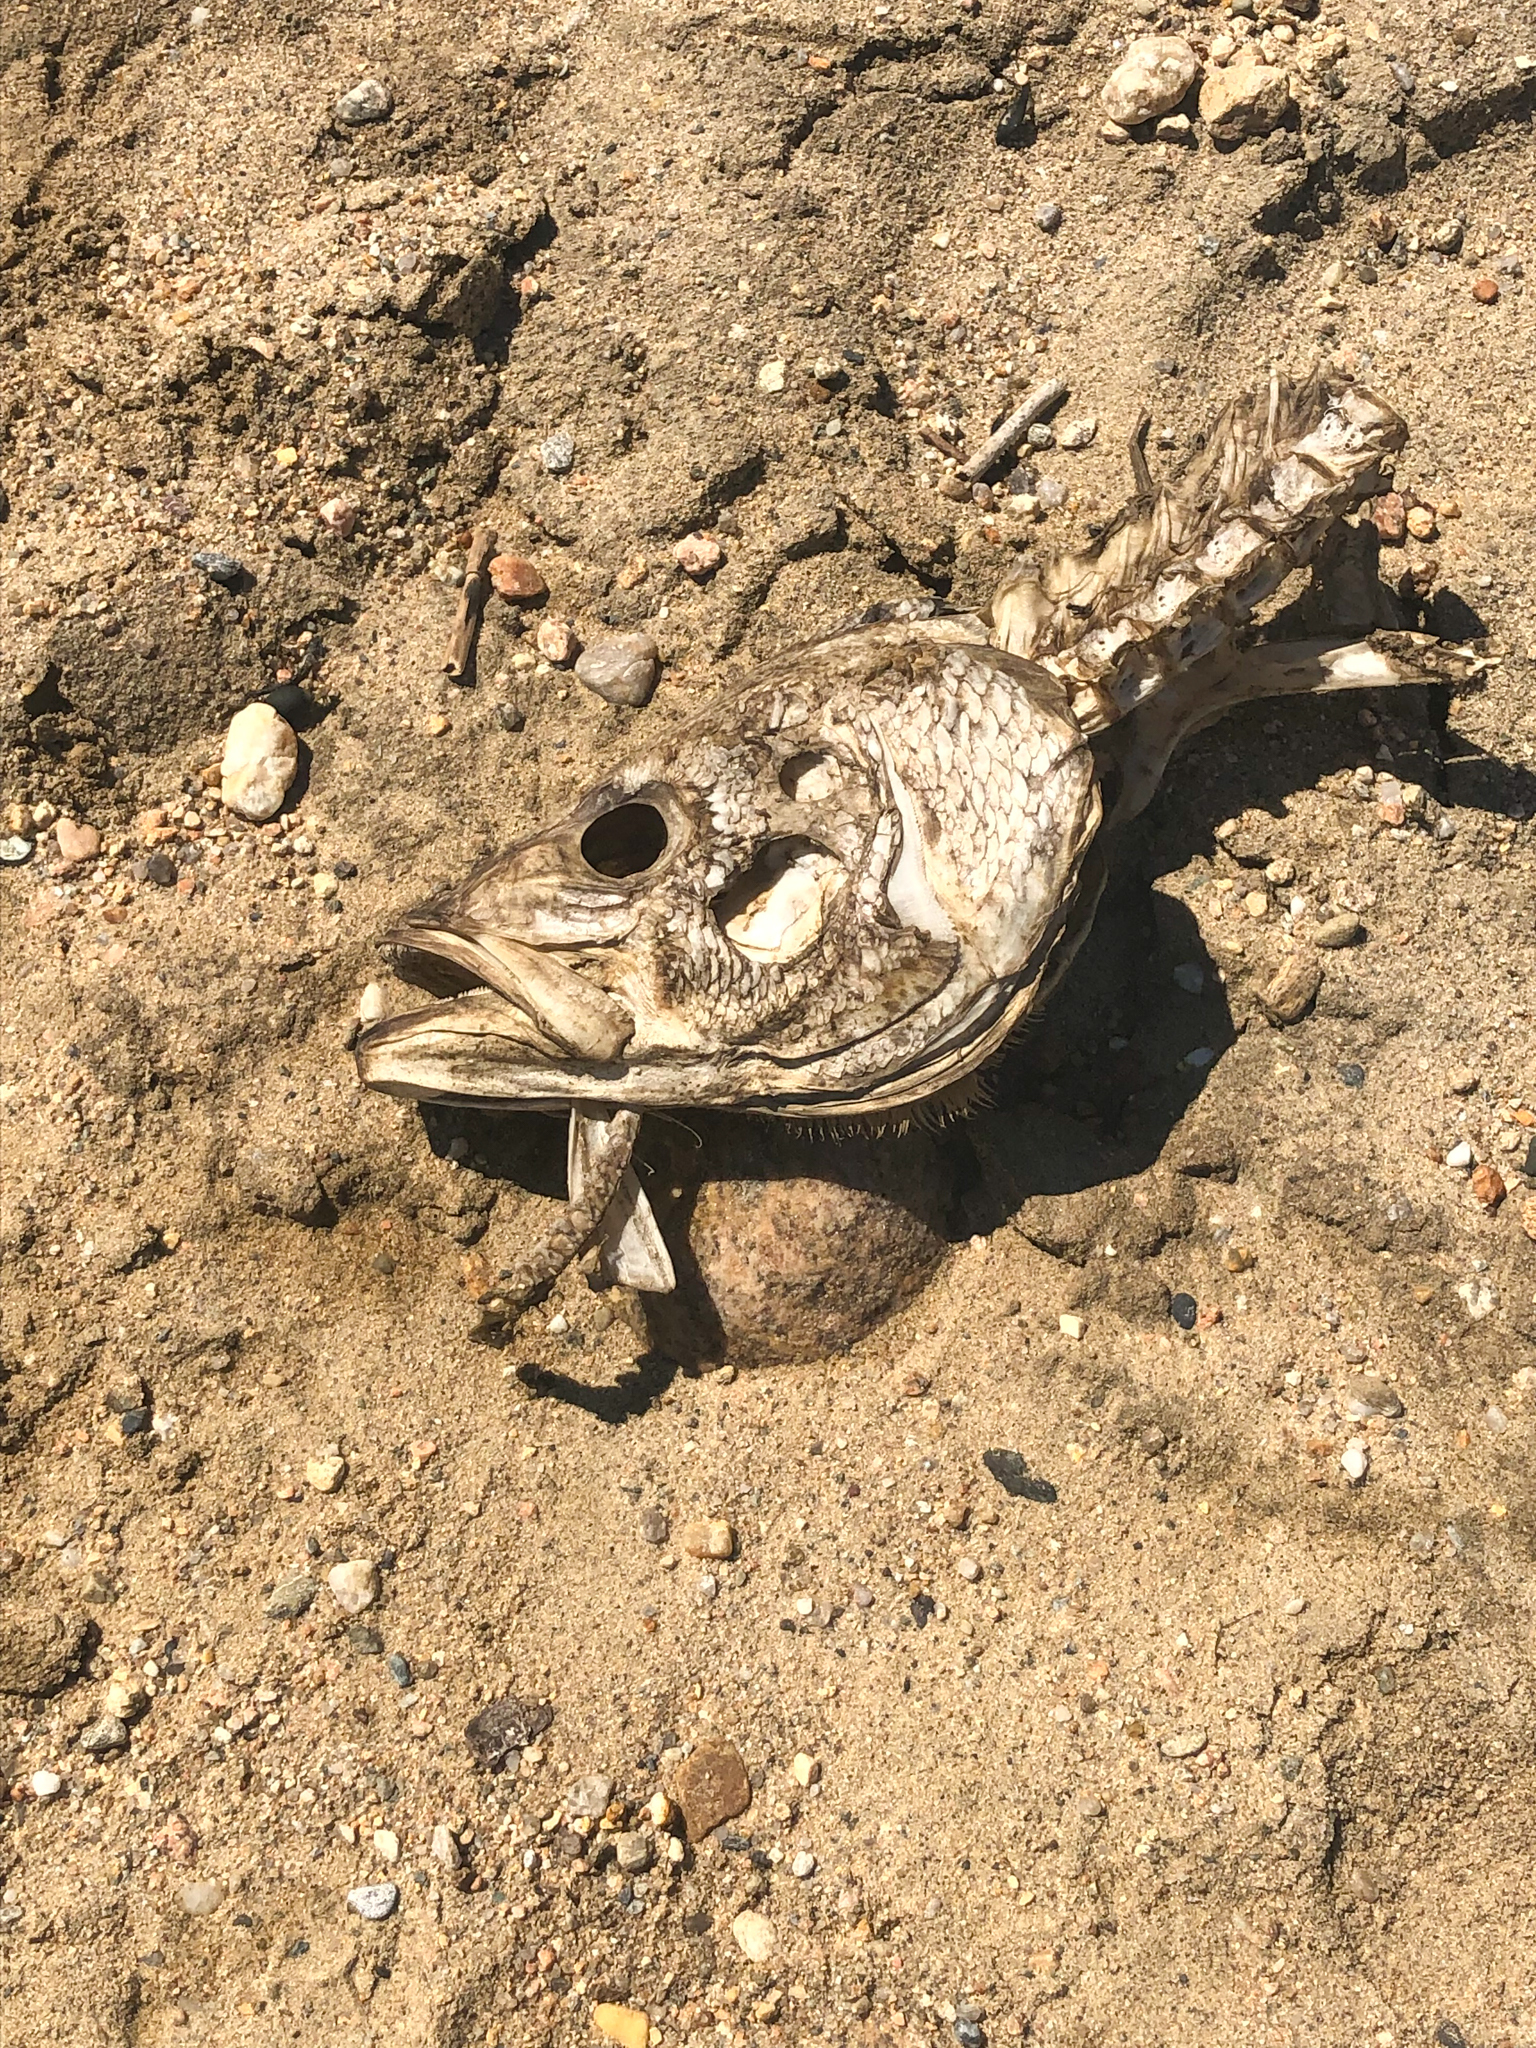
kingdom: Animalia
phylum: Chordata
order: Perciformes
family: Moronidae
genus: Morone
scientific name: Morone saxatilis
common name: Striped bass
